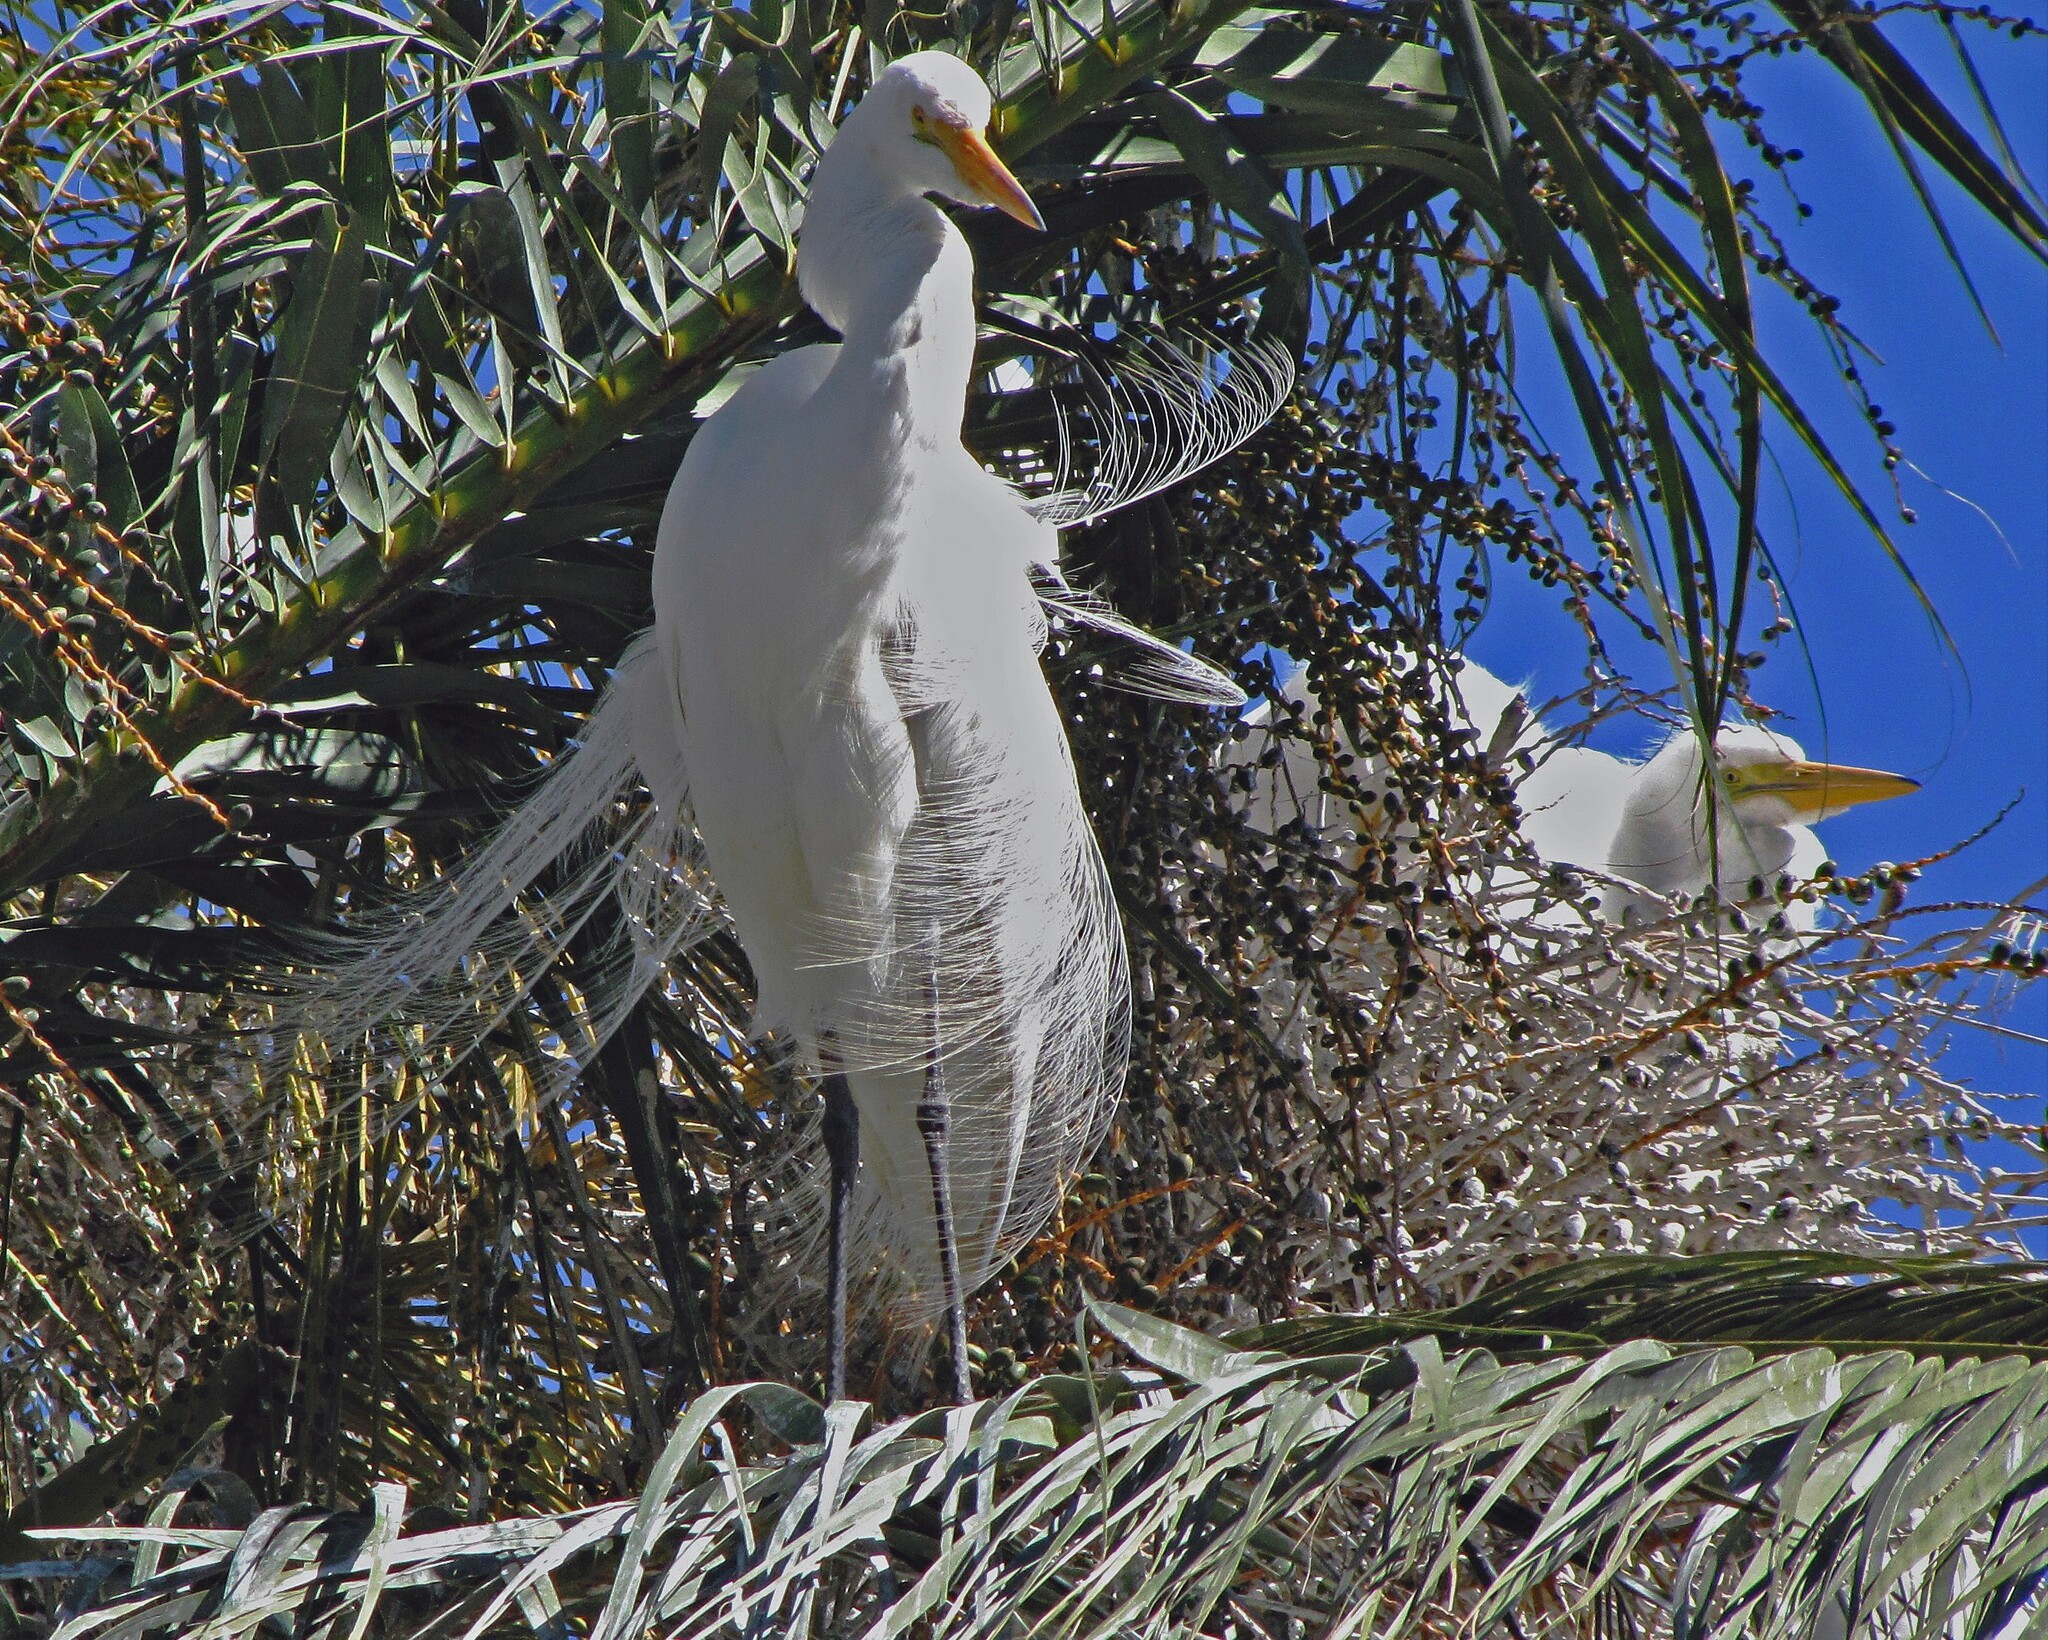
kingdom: Animalia
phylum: Chordata
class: Aves
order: Pelecaniformes
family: Ardeidae
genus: Ardea
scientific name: Ardea alba
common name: Great egret
